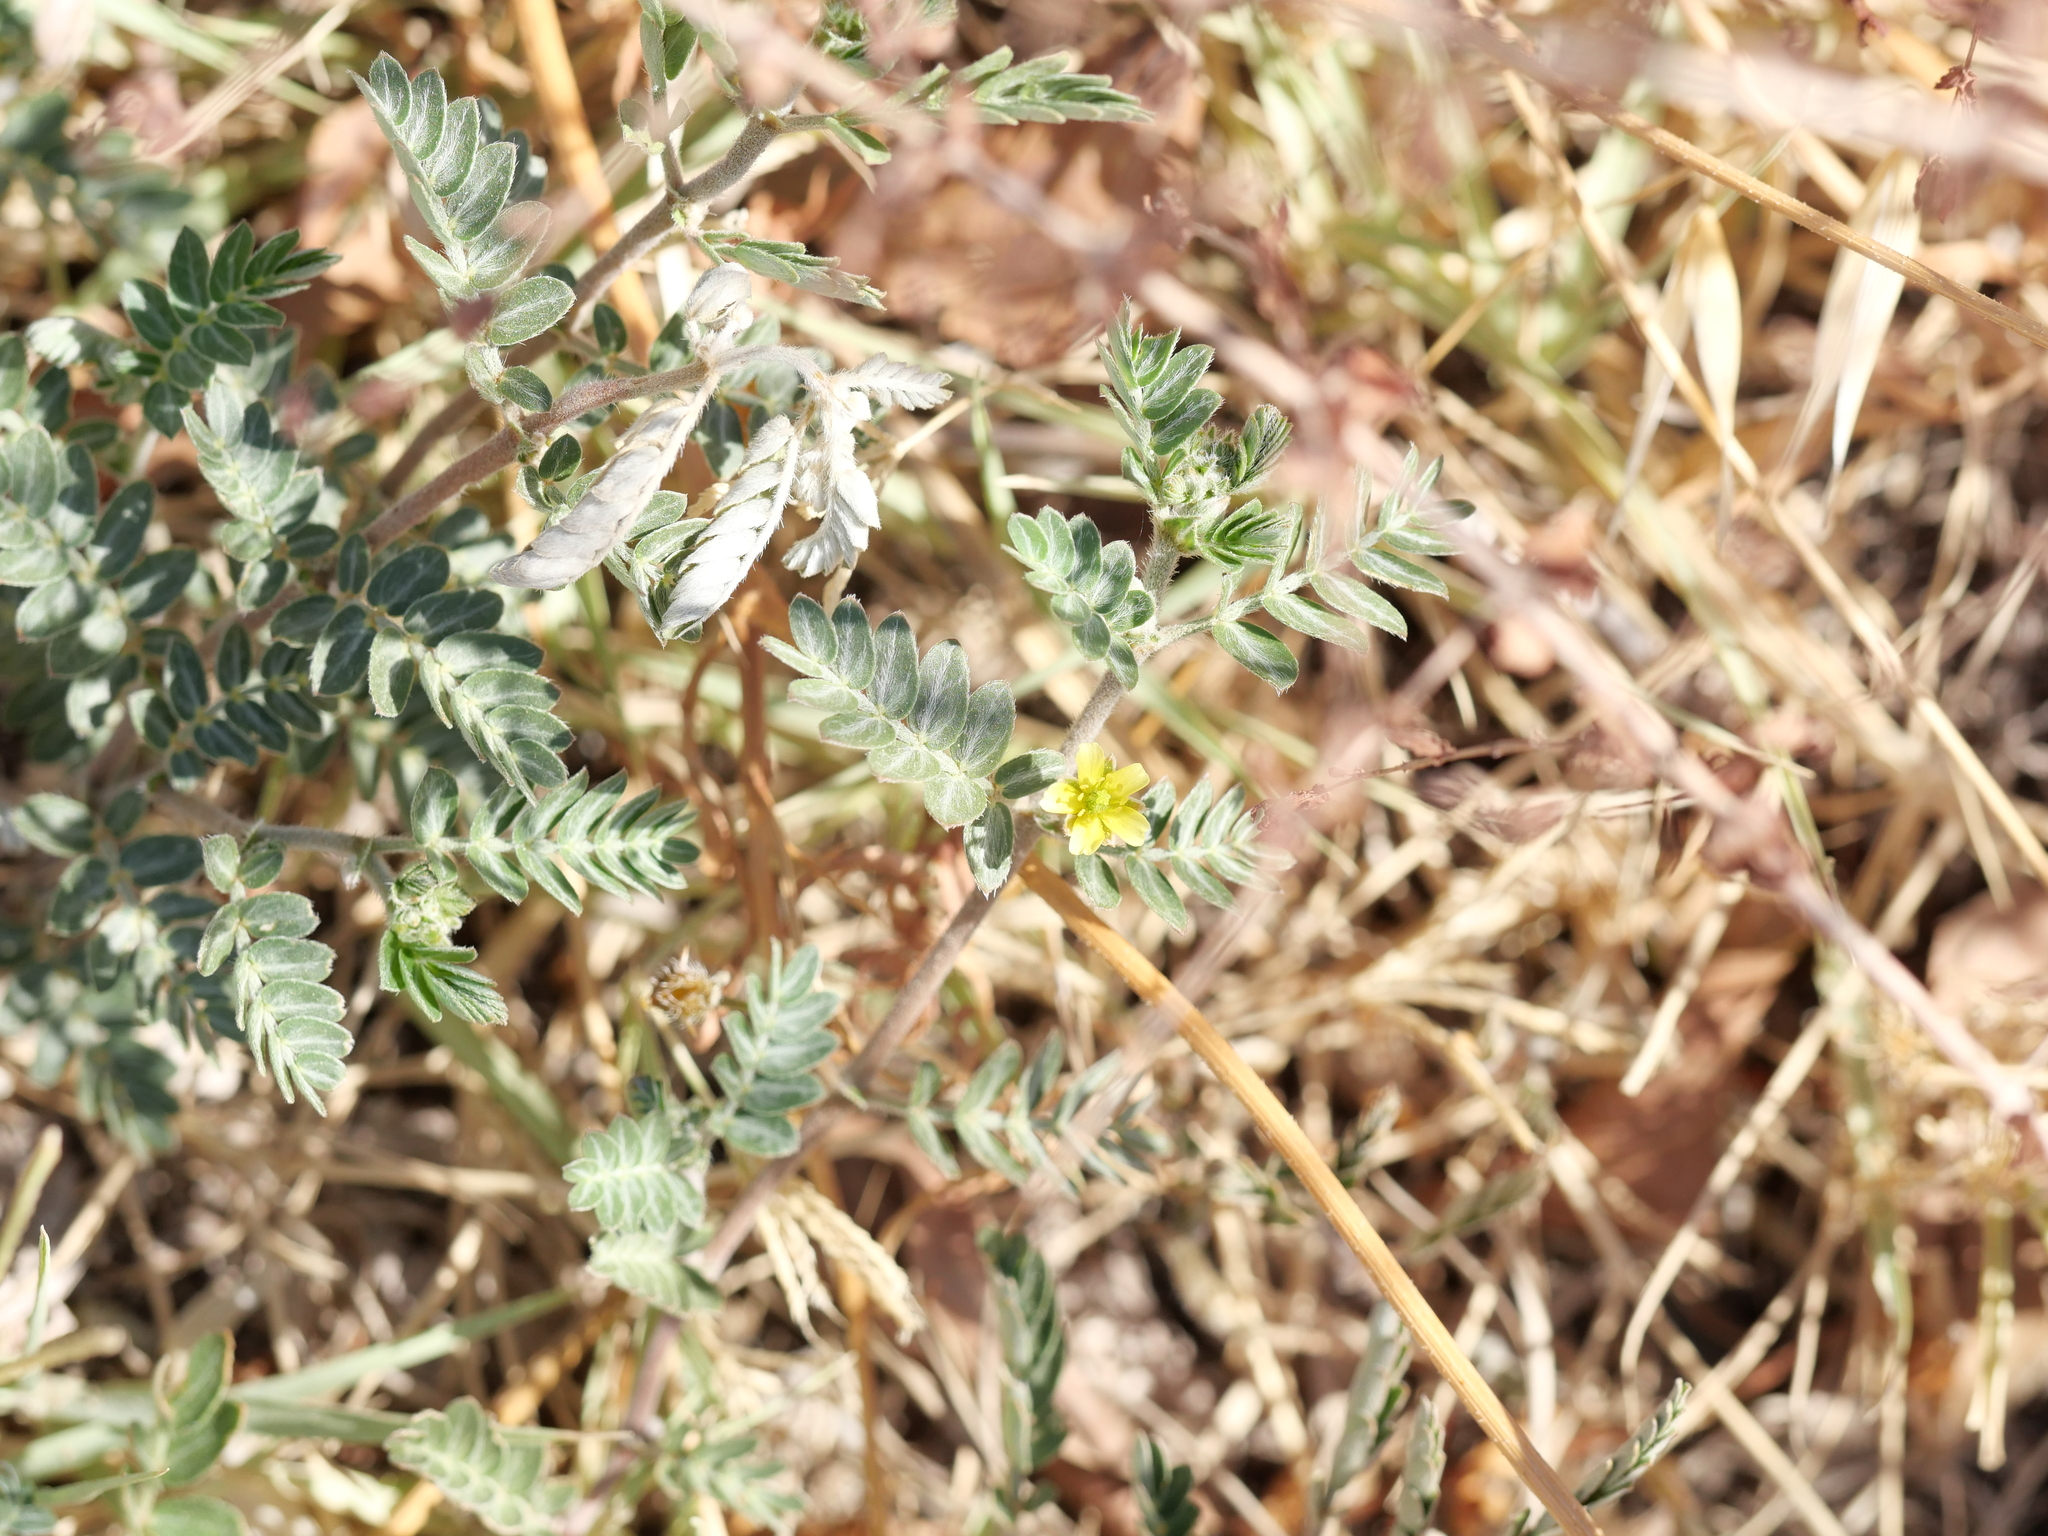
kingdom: Plantae
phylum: Tracheophyta
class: Magnoliopsida
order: Zygophyllales
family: Zygophyllaceae
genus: Tribulus
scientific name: Tribulus terrestris
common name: Puncturevine
